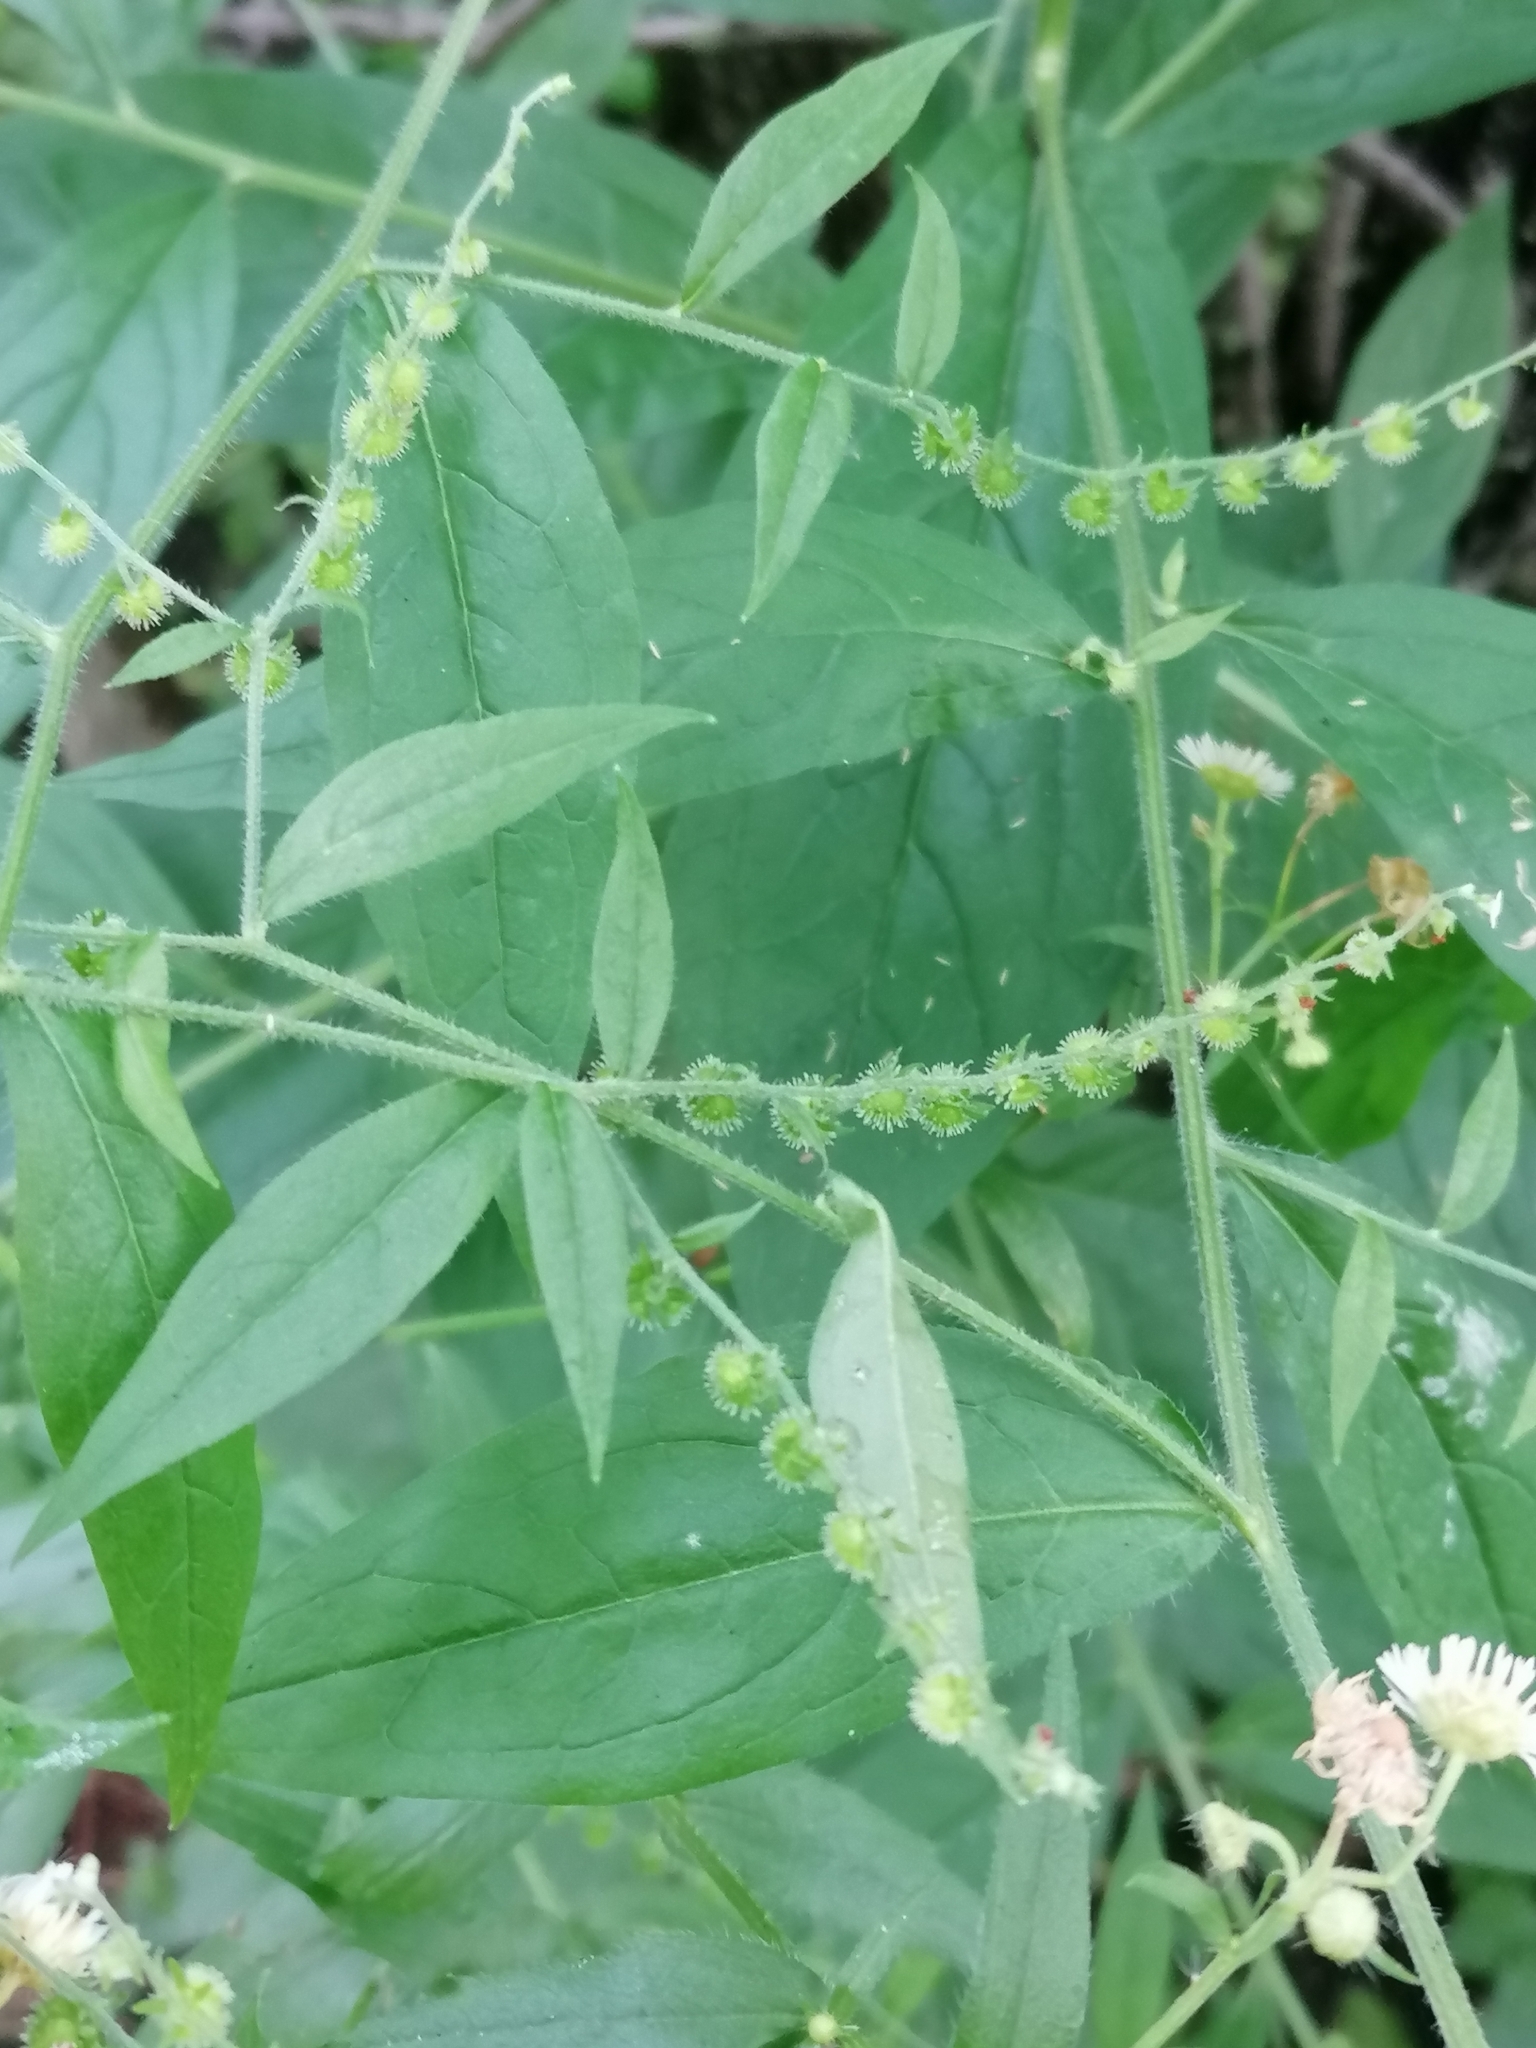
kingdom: Plantae
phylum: Tracheophyta
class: Magnoliopsida
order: Boraginales
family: Boraginaceae
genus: Hackelia
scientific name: Hackelia virginiana
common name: Beggar's-lice
